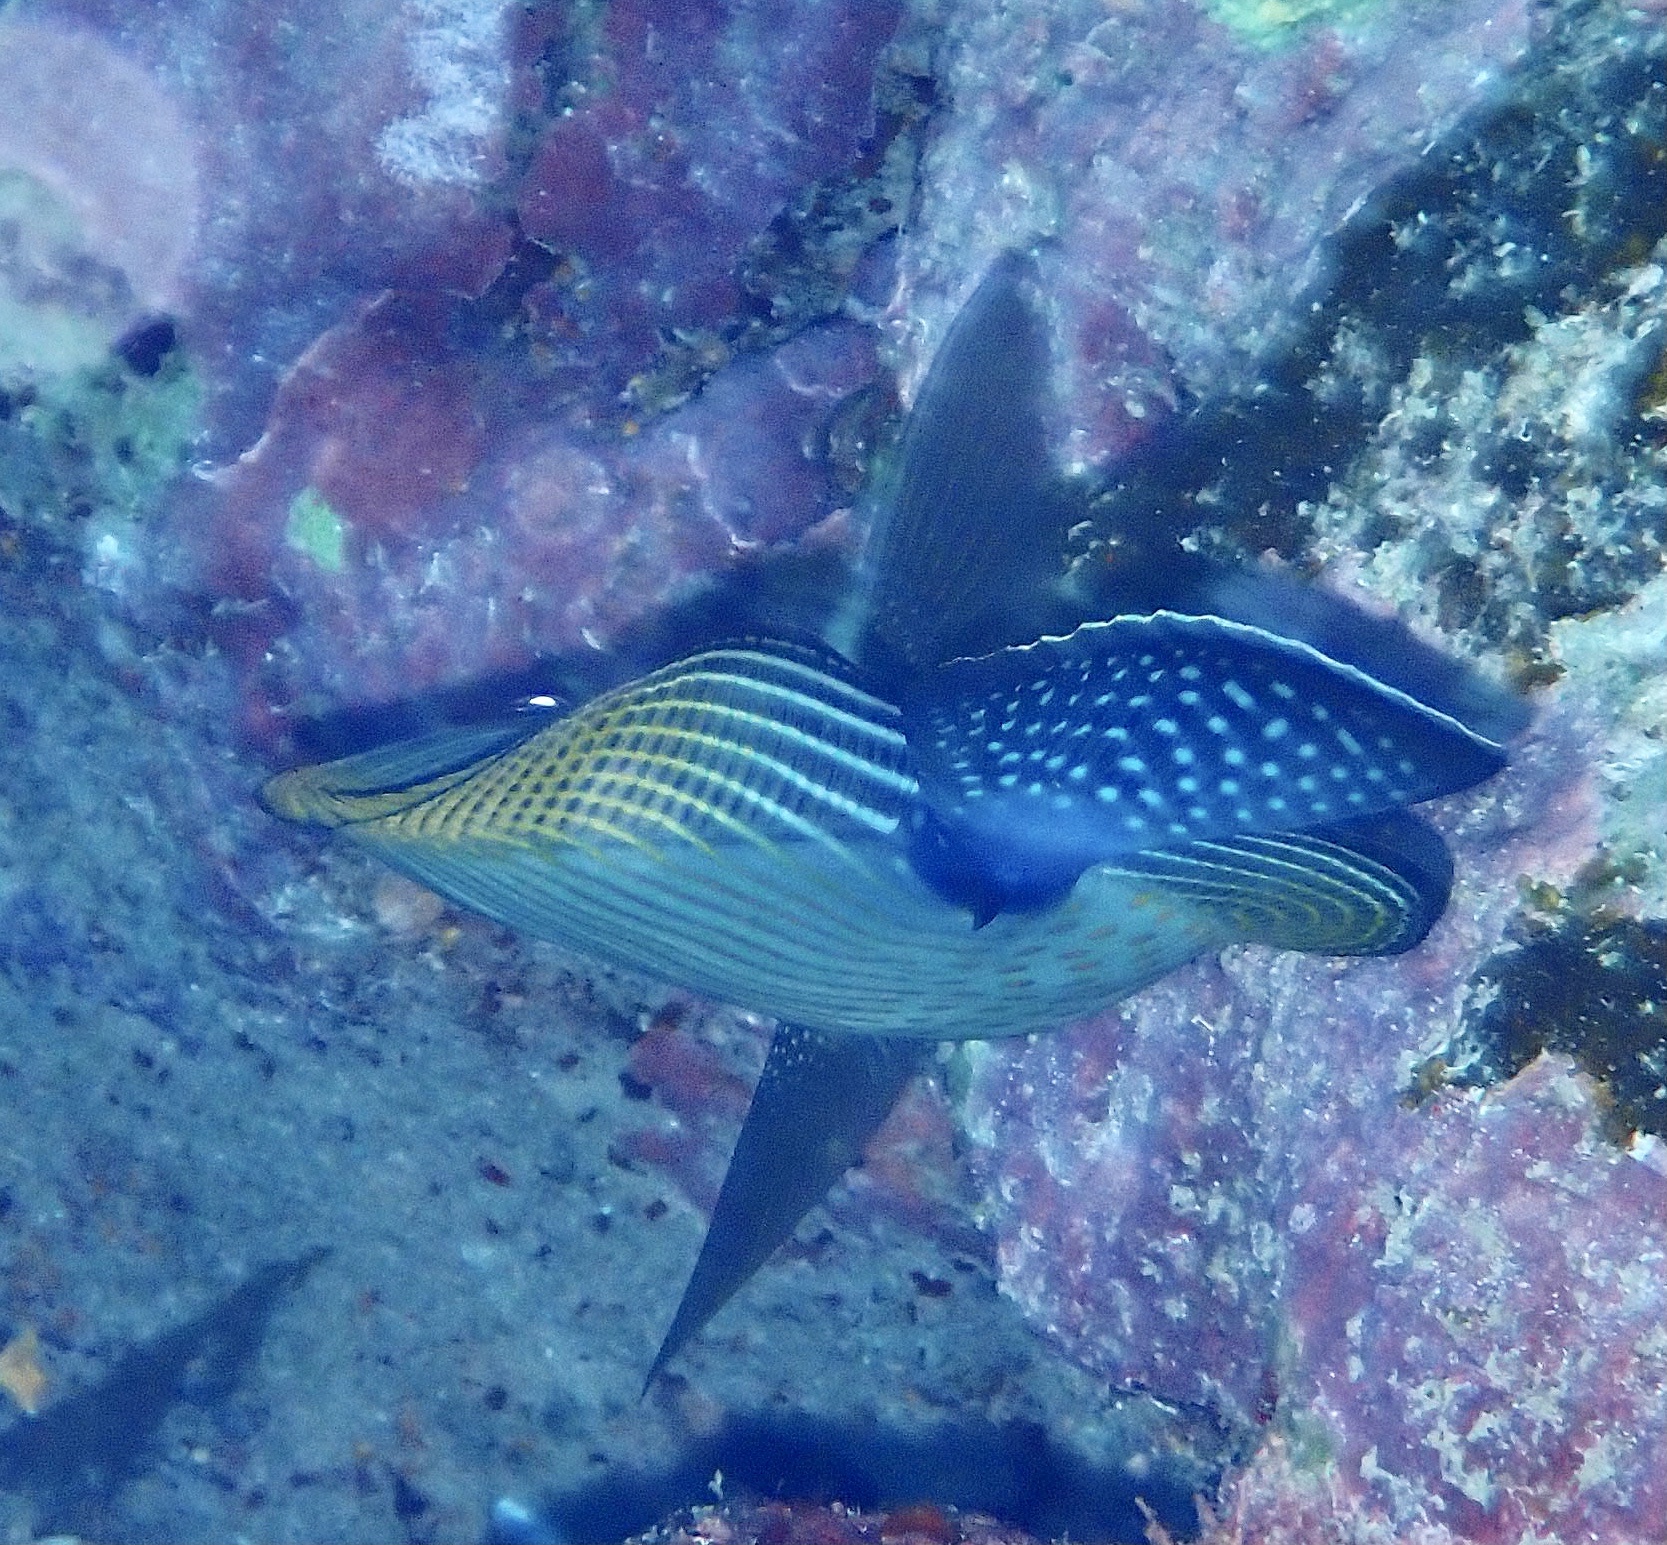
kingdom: Animalia
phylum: Chordata
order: Perciformes
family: Acanthuridae
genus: Zebrasoma
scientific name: Zebrasoma desjardinii
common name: Desjardin's sailfin tang
